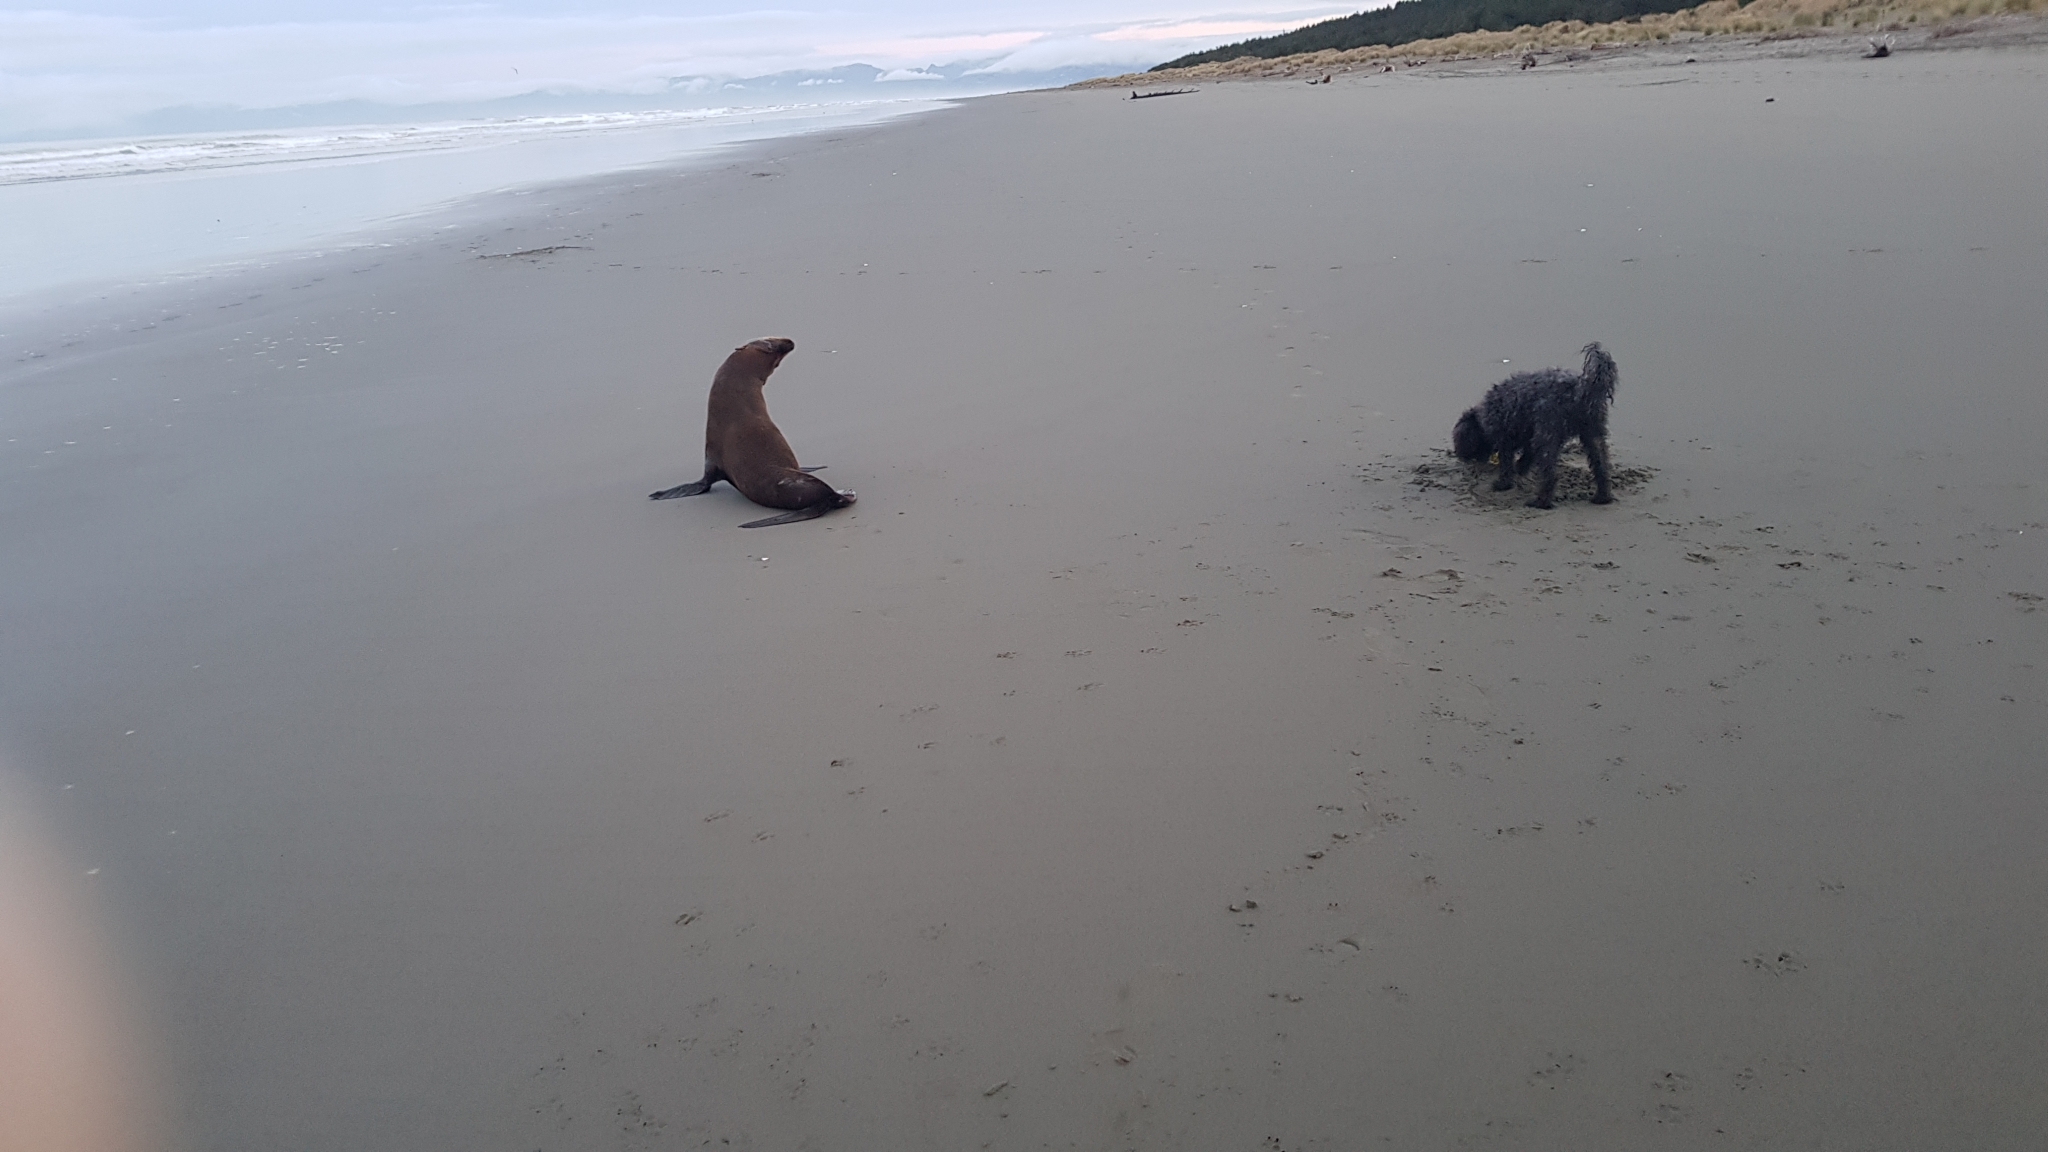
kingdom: Animalia
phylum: Chordata
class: Mammalia
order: Carnivora
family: Otariidae
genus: Arctocephalus
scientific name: Arctocephalus forsteri
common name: New zealand fur seal
